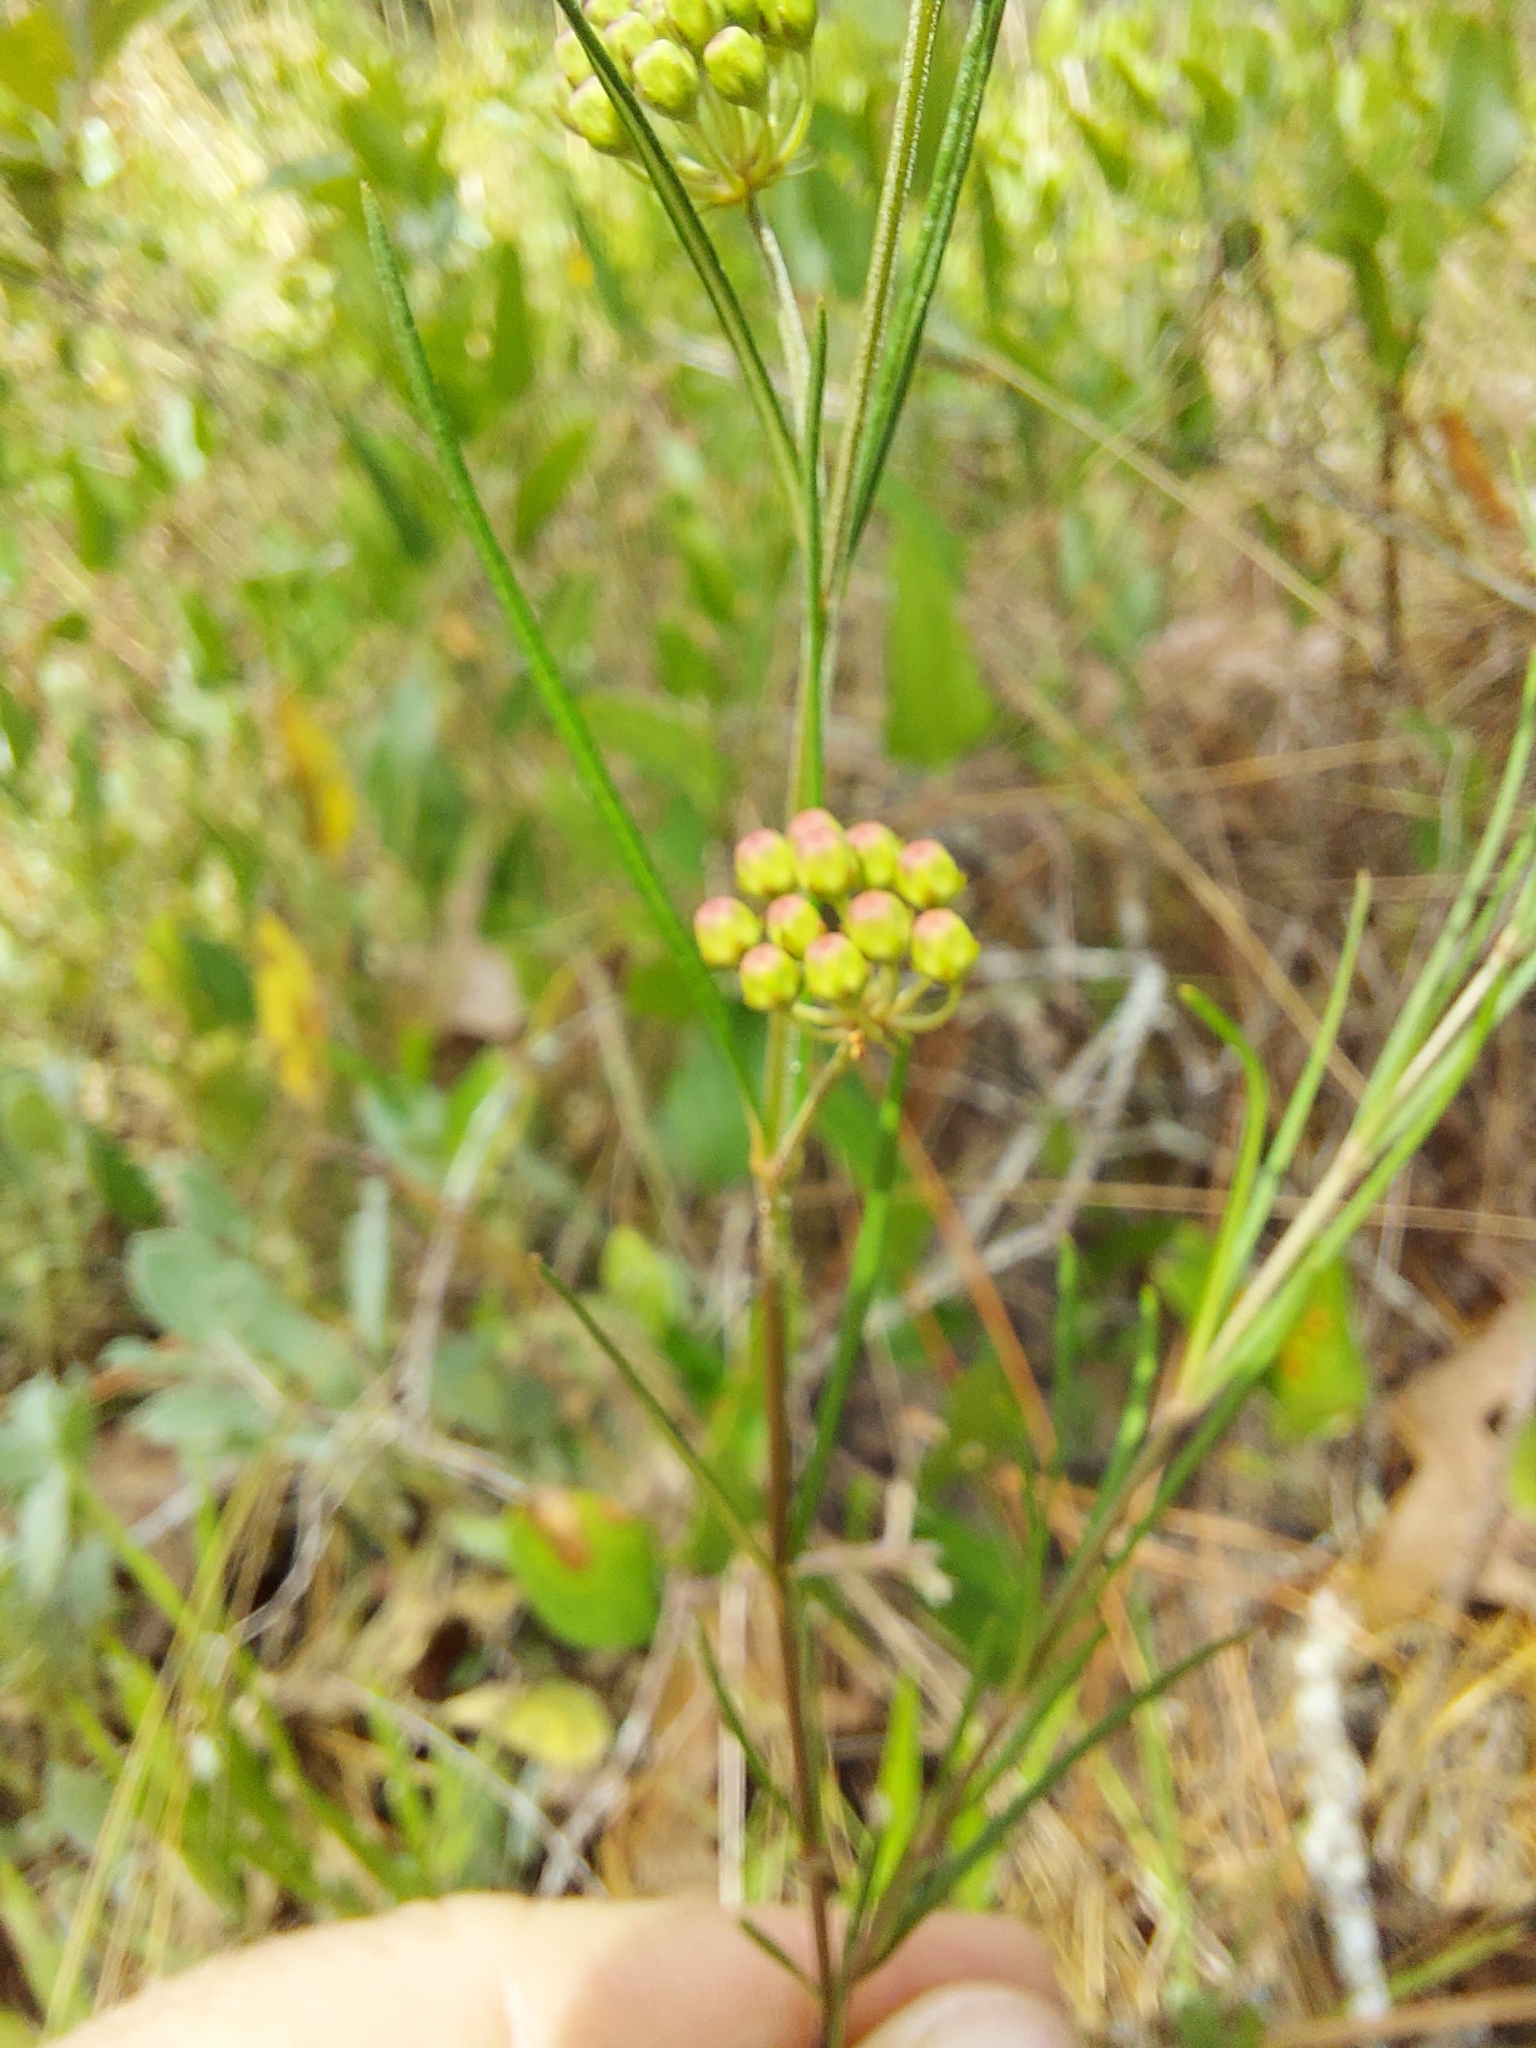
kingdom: Plantae
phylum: Tracheophyta
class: Magnoliopsida
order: Gentianales
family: Apocynaceae
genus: Asclepias
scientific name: Asclepias verticillata
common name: Eastern whorled milkweed
